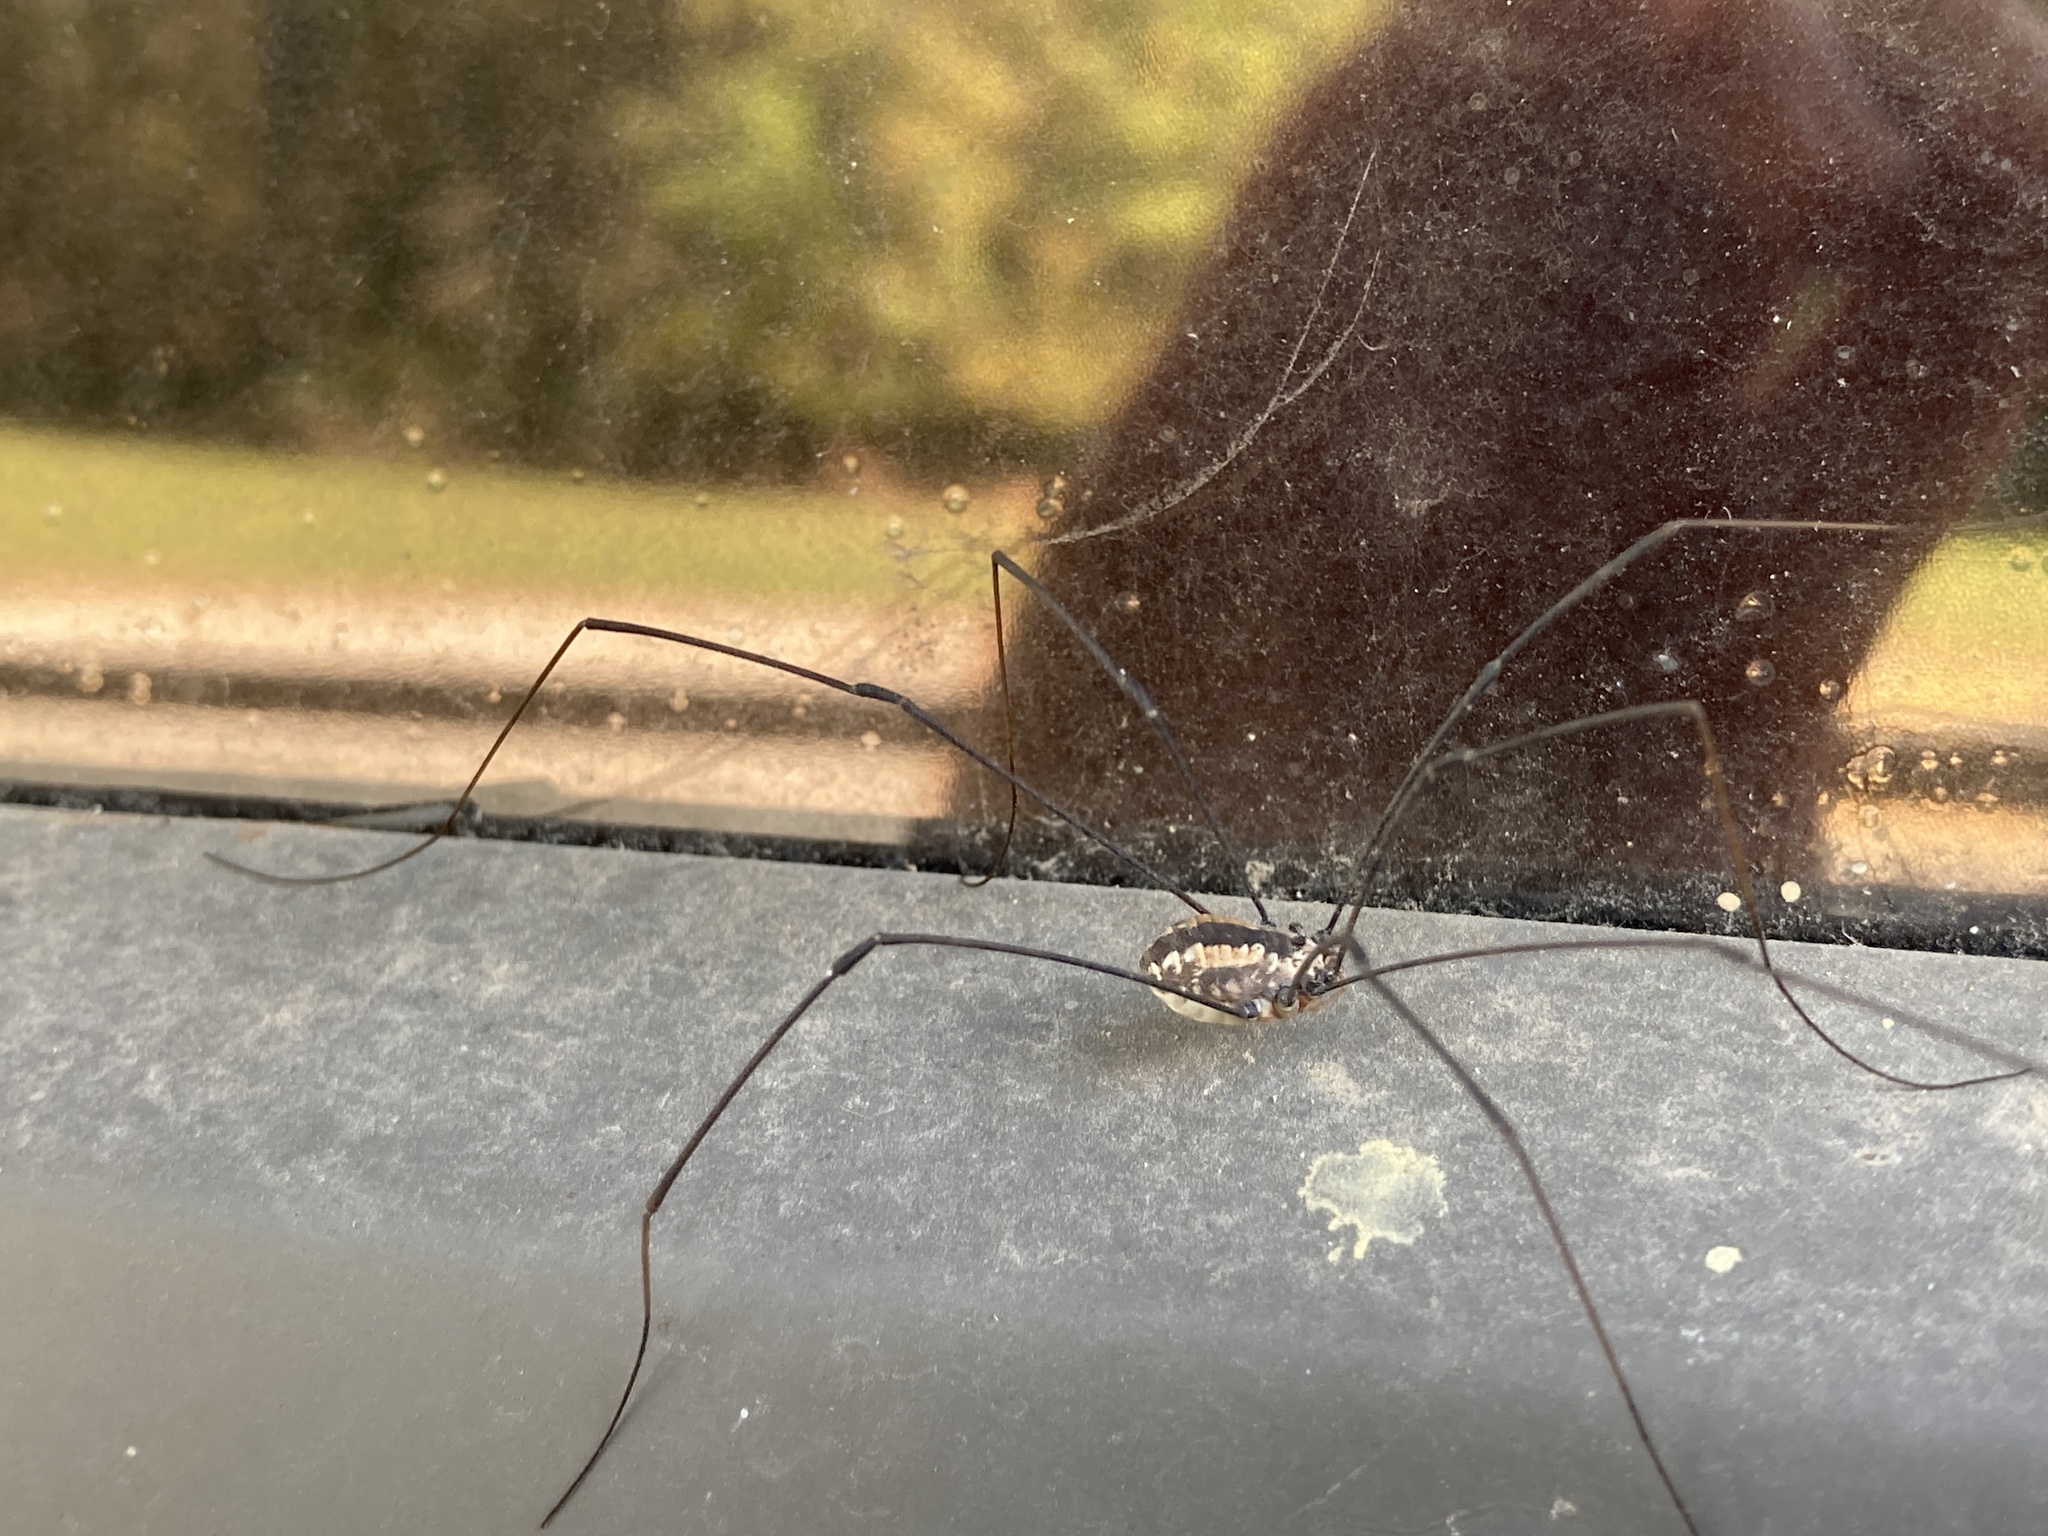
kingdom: Animalia
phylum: Arthropoda
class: Arachnida
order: Opiliones
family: Sclerosomatidae
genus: Leiobunum
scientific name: Leiobunum vittatum
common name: Eastern harvestman
